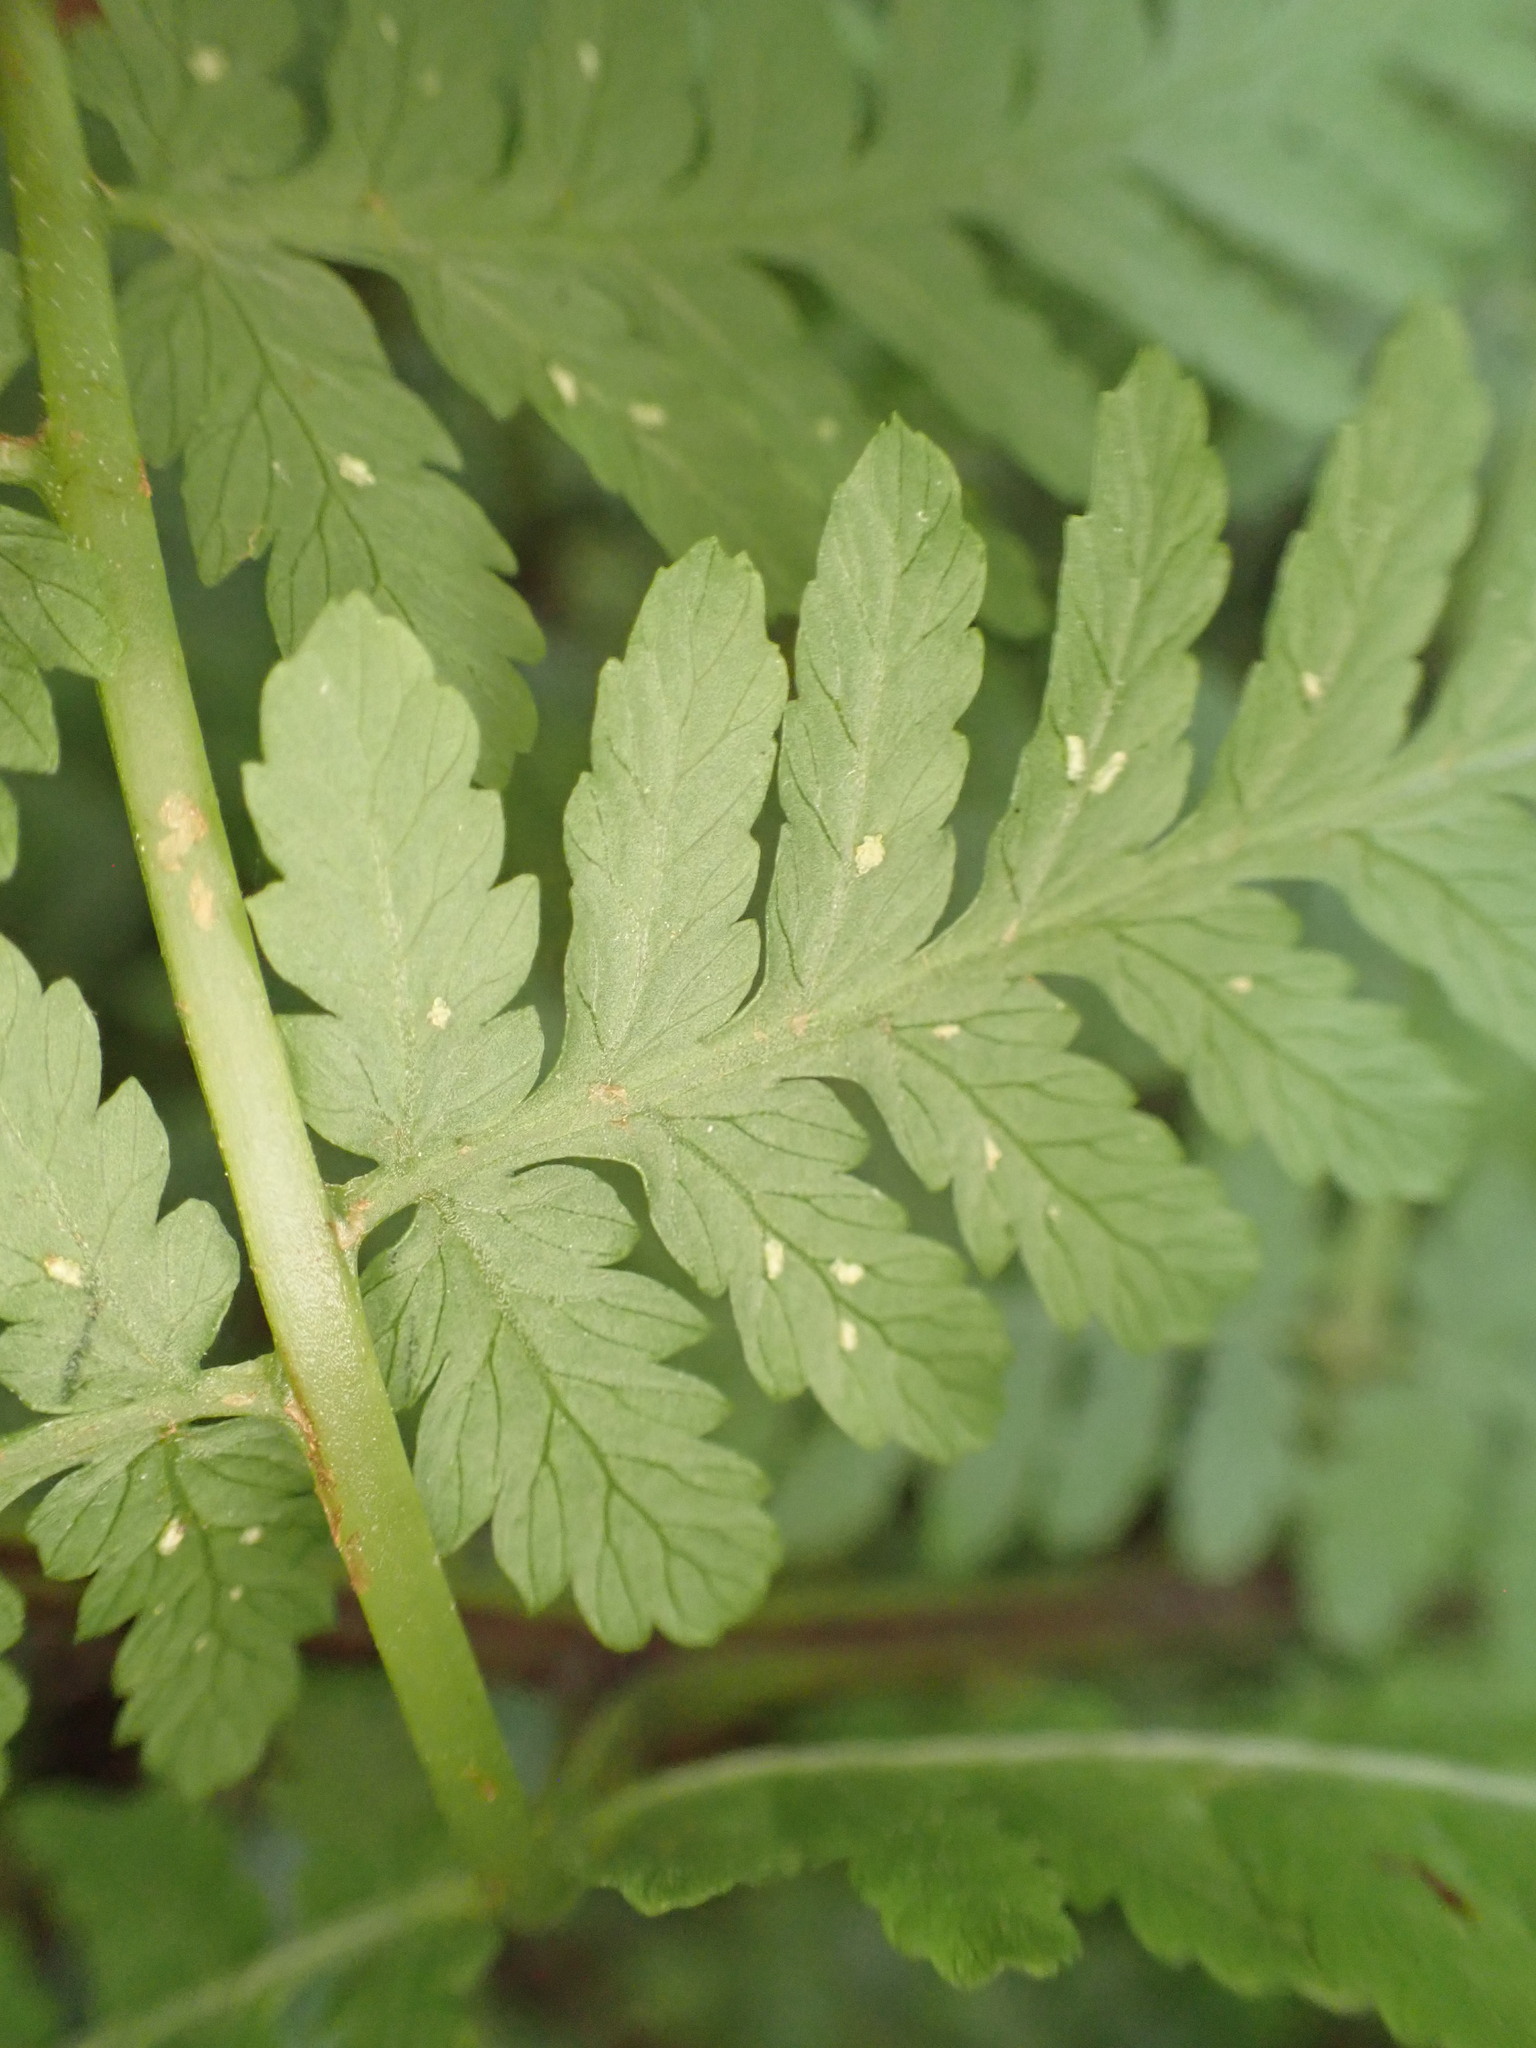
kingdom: Plantae
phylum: Tracheophyta
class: Polypodiopsida
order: Polypodiales
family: Athyriaceae
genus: Diplazium
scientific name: Diplazium australe
